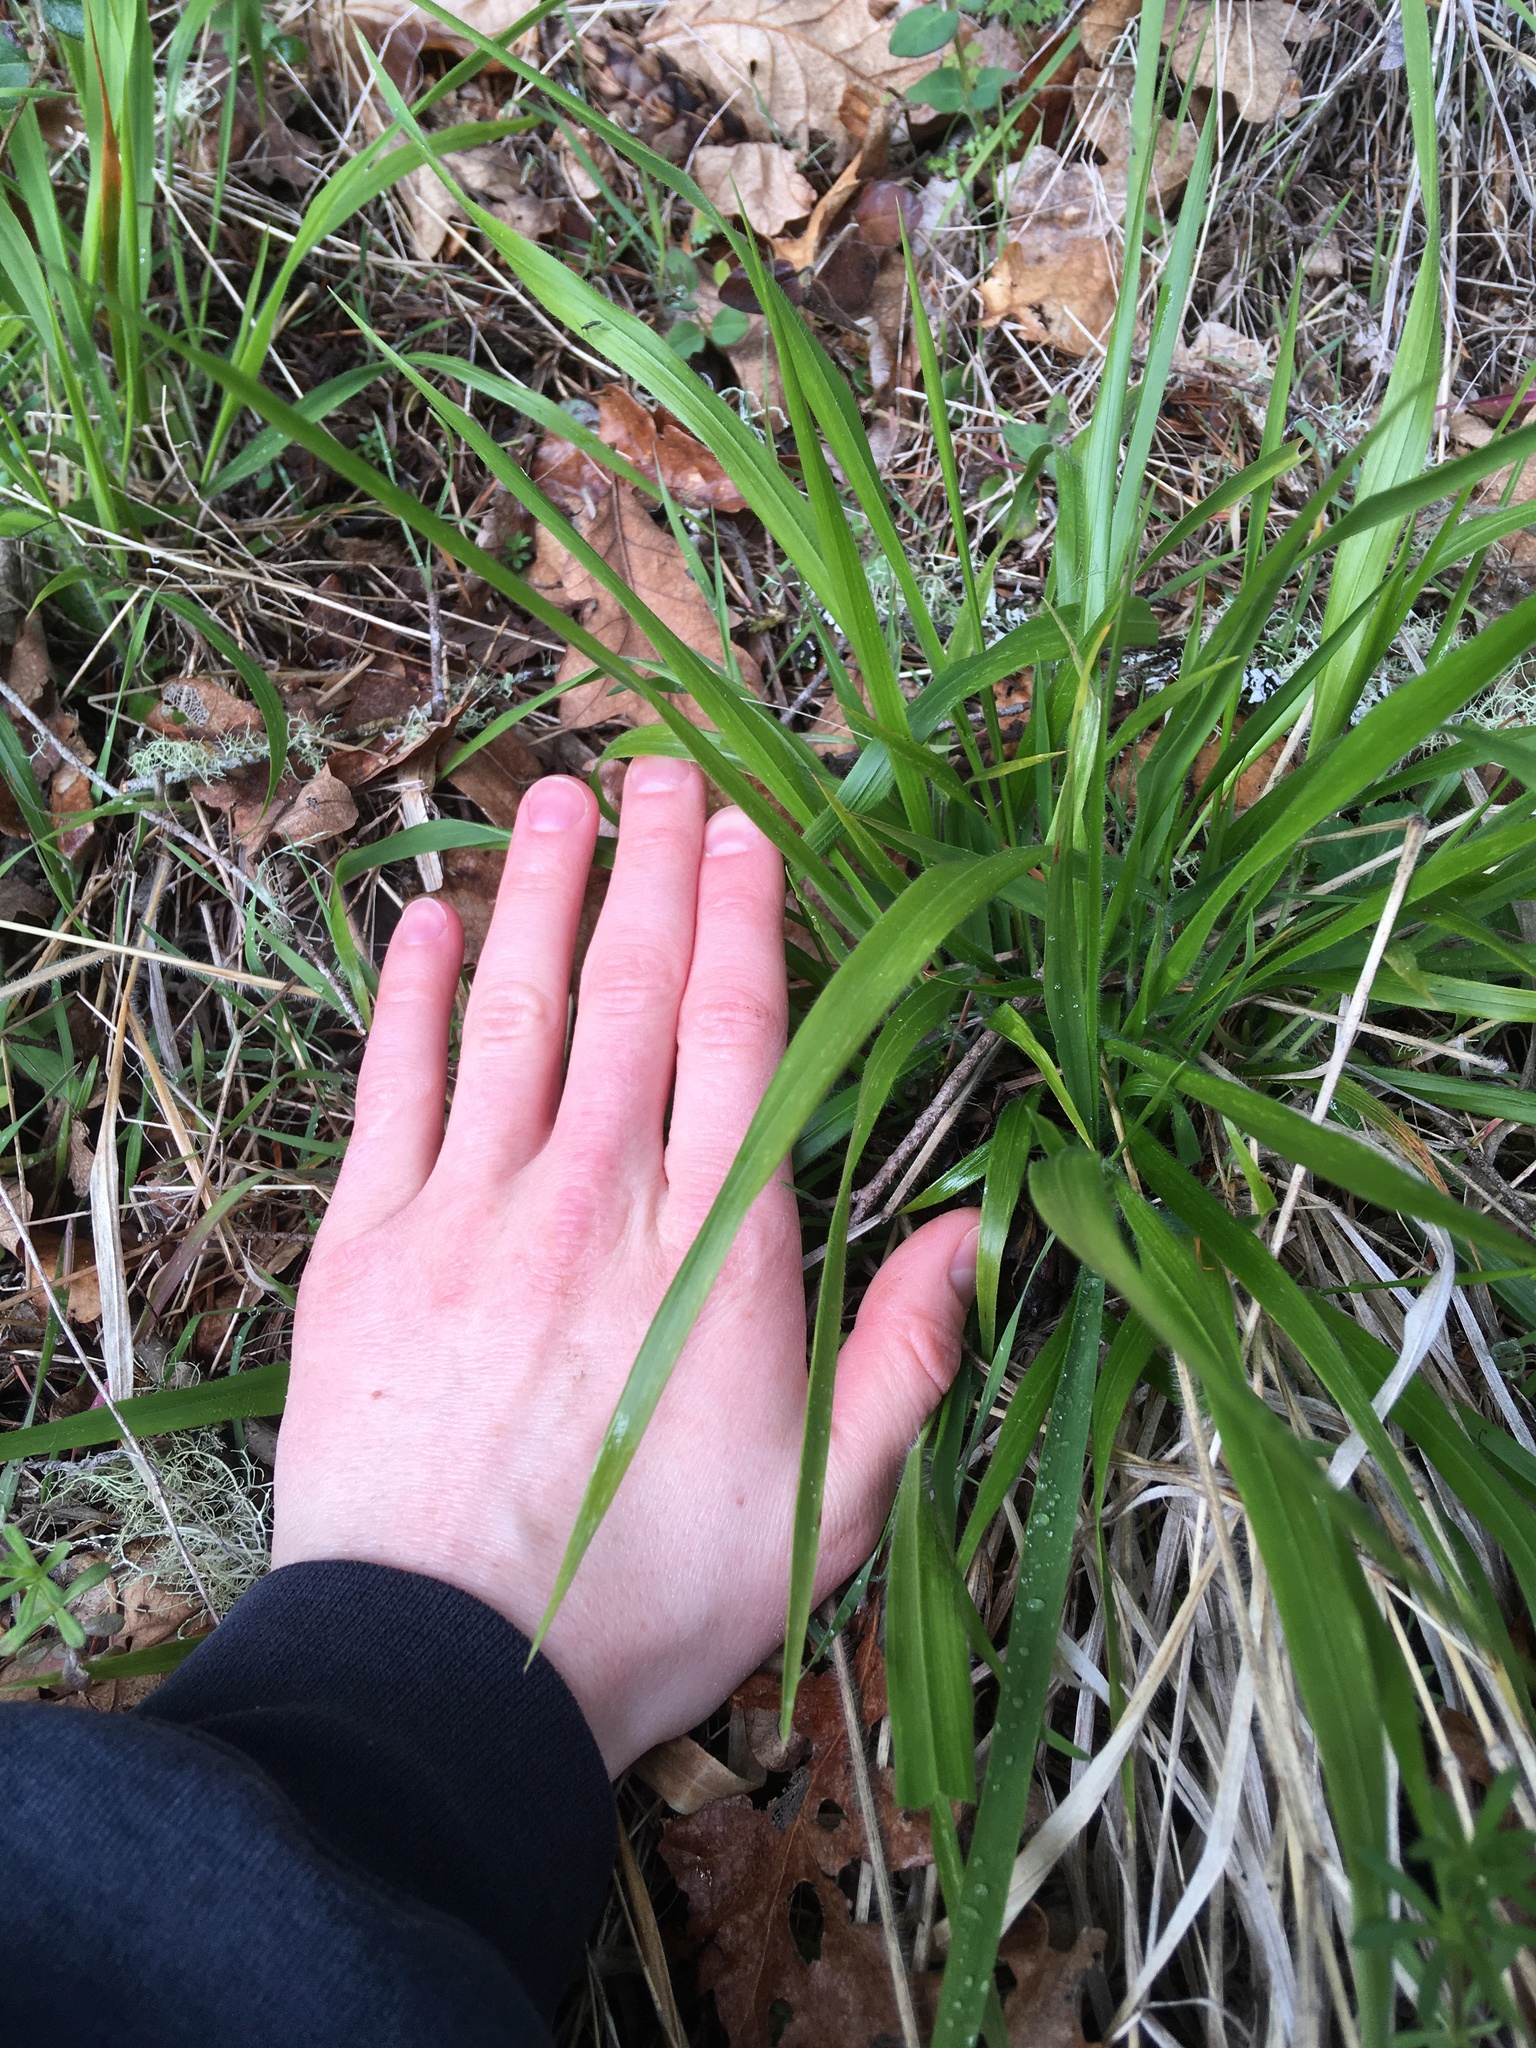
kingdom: Plantae
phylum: Tracheophyta
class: Liliopsida
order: Poales
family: Poaceae
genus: Brachypodium
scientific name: Brachypodium sylvaticum
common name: False-brome
